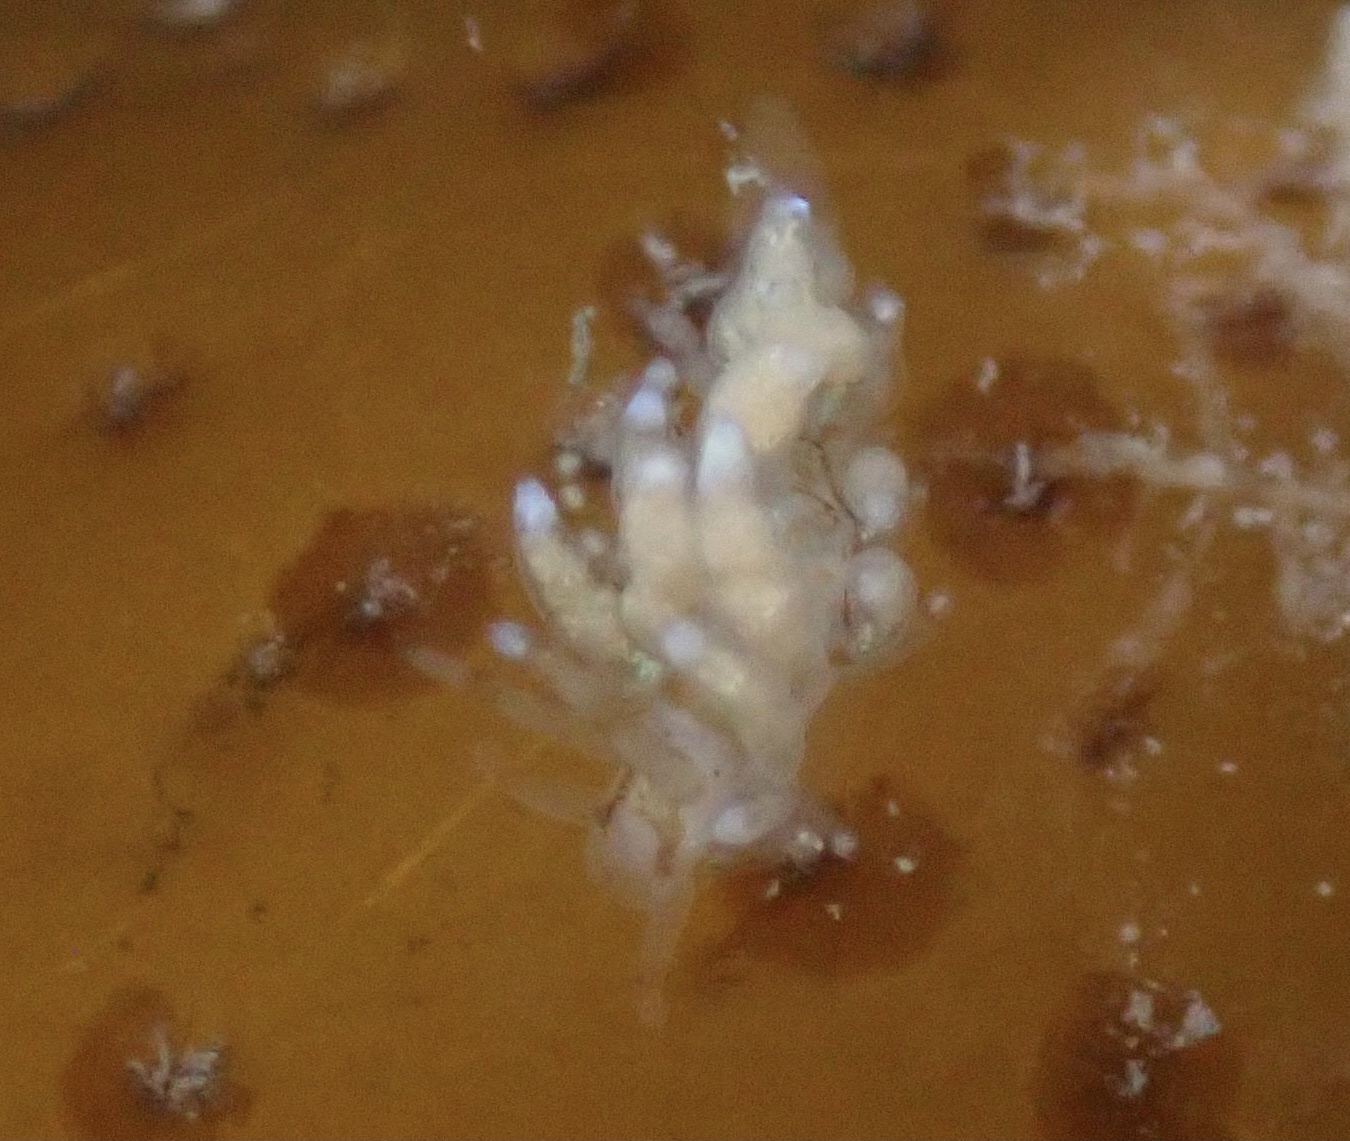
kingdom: Animalia
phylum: Mollusca
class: Gastropoda
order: Nudibranchia
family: Eubranchidae
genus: Eubranchus
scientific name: Eubranchus rustyus
